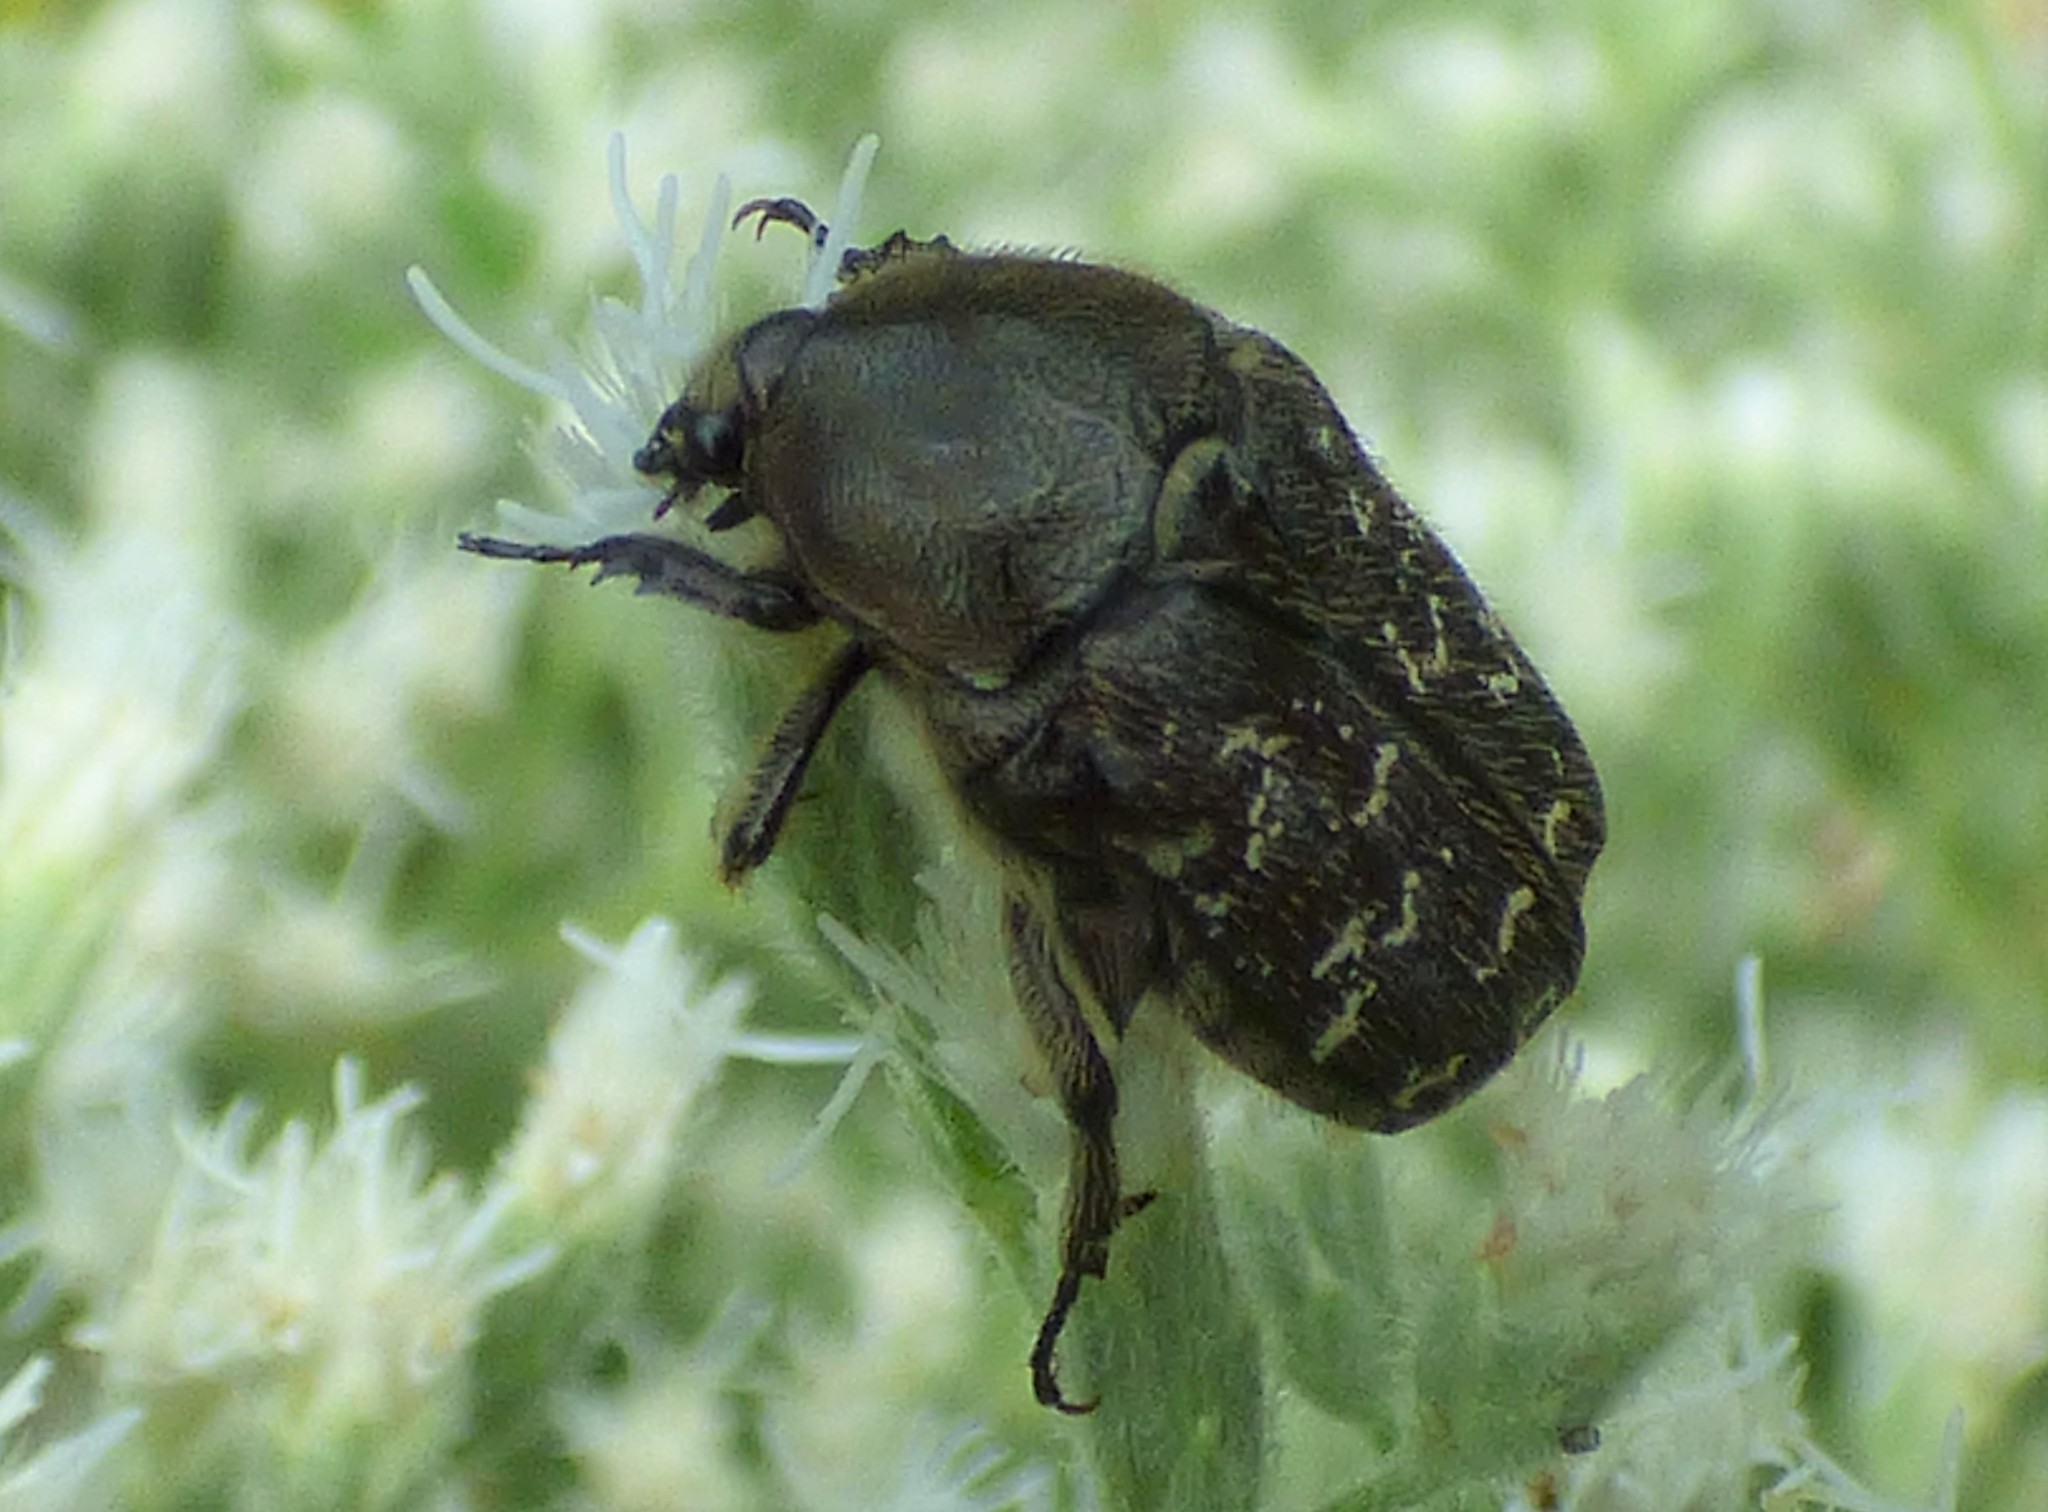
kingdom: Animalia
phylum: Arthropoda
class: Insecta
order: Coleoptera
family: Scarabaeidae
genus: Euphoria
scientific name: Euphoria sepulcralis
